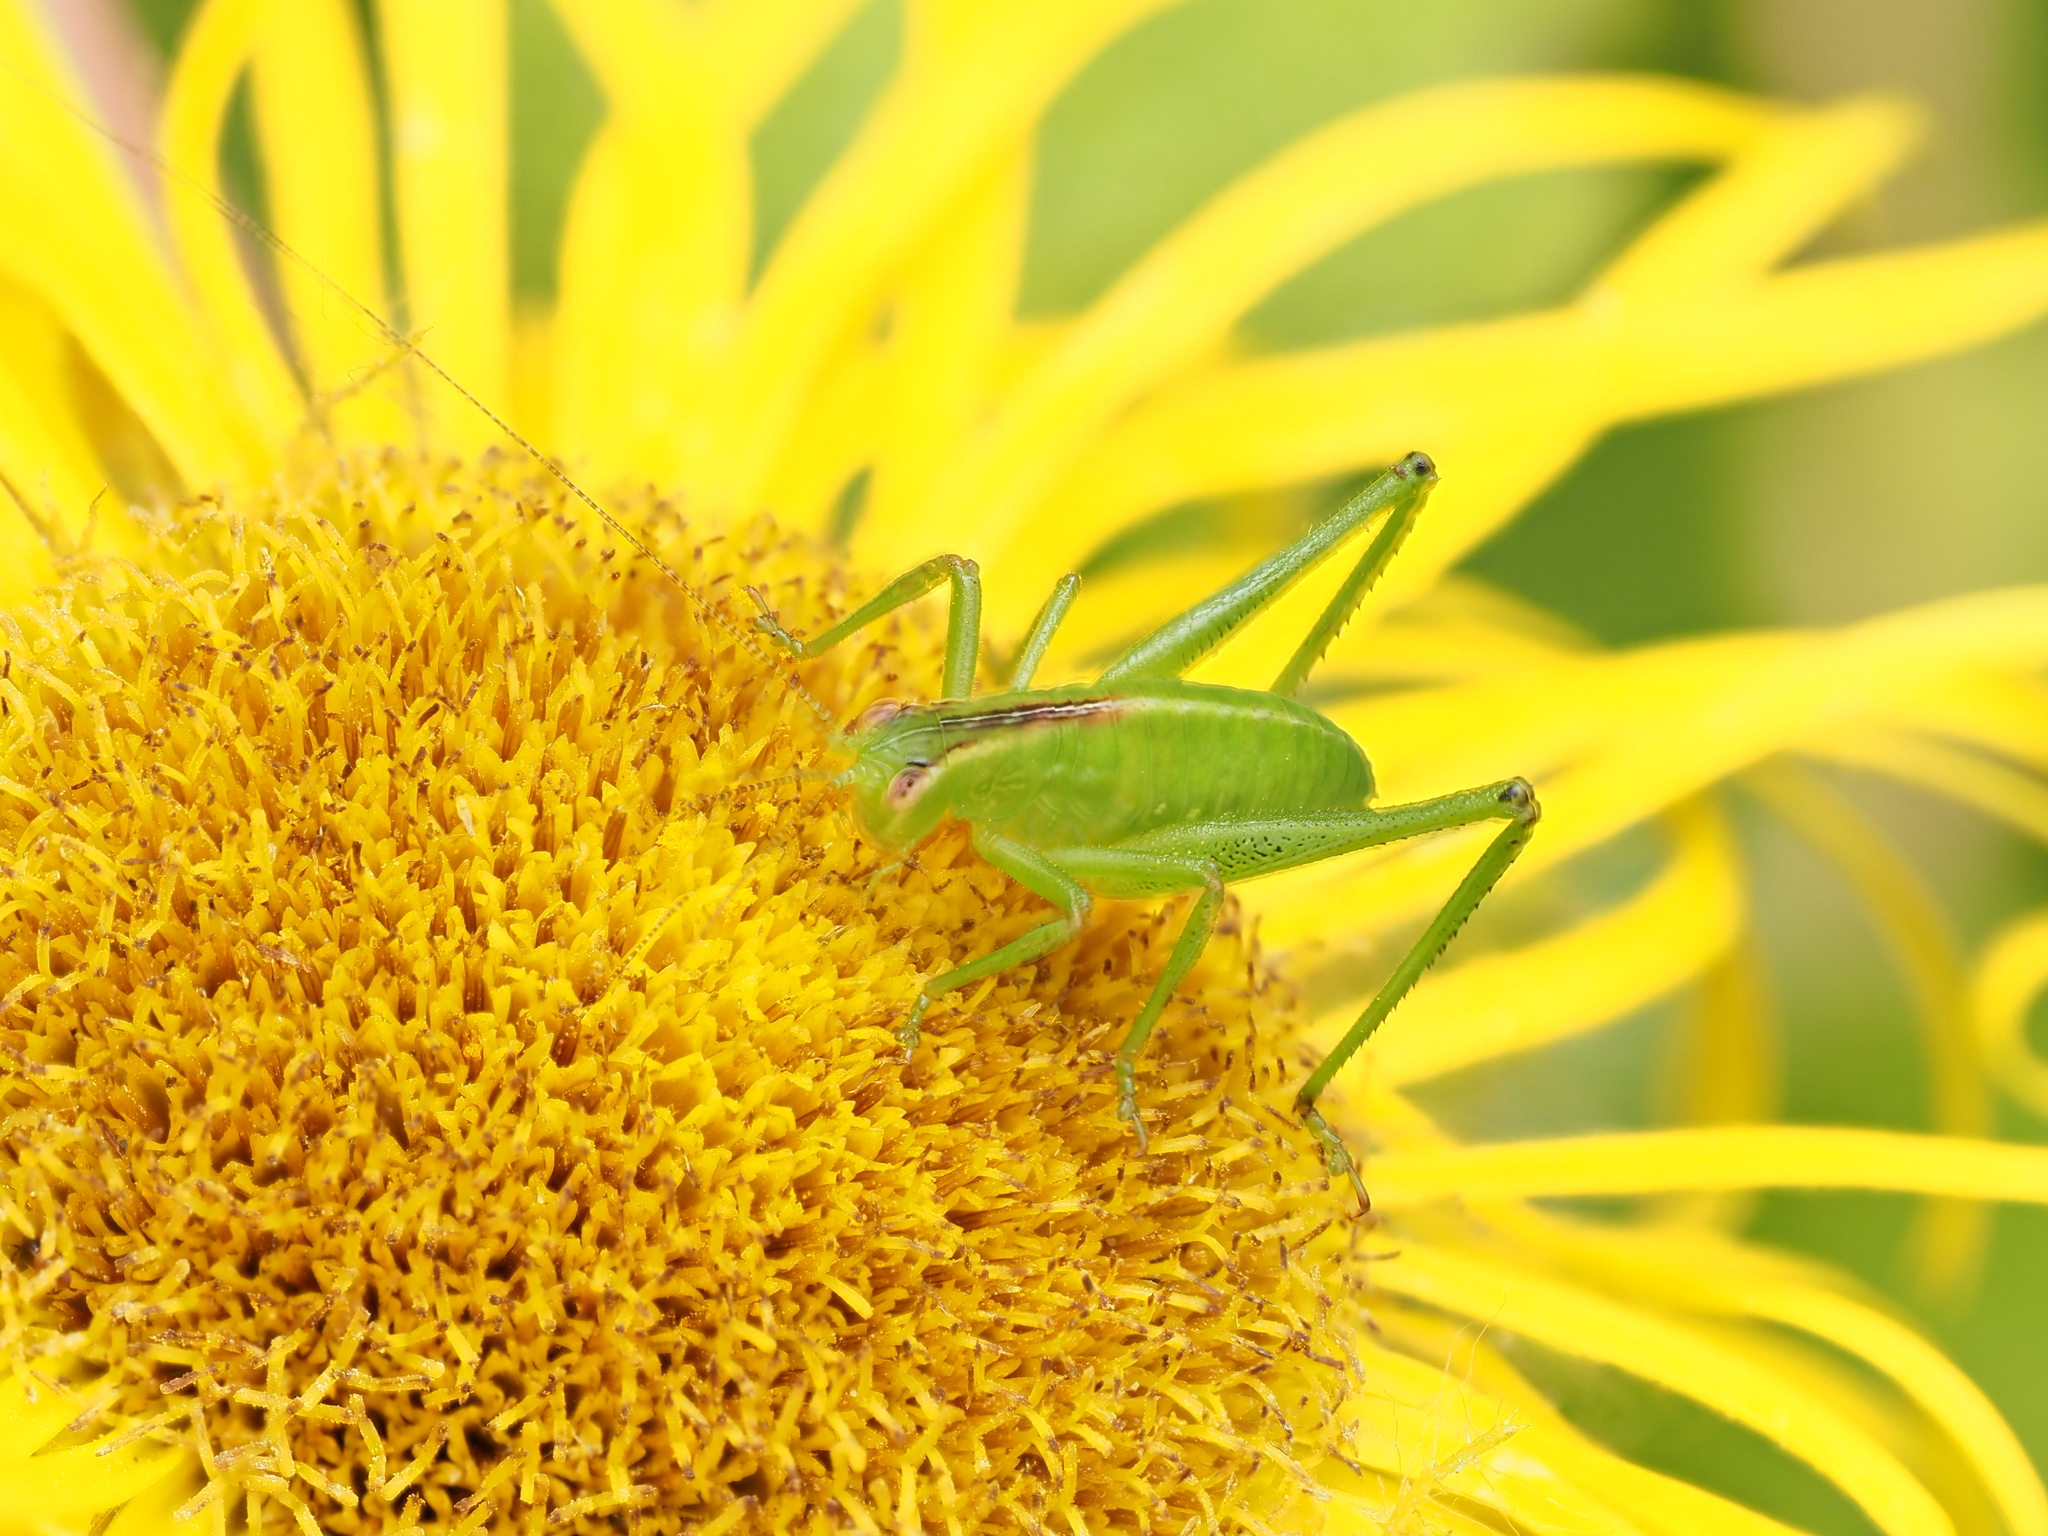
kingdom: Animalia
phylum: Arthropoda
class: Insecta
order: Orthoptera
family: Tettigoniidae
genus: Caedicia
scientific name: Caedicia simplex
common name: Common garden katydid
